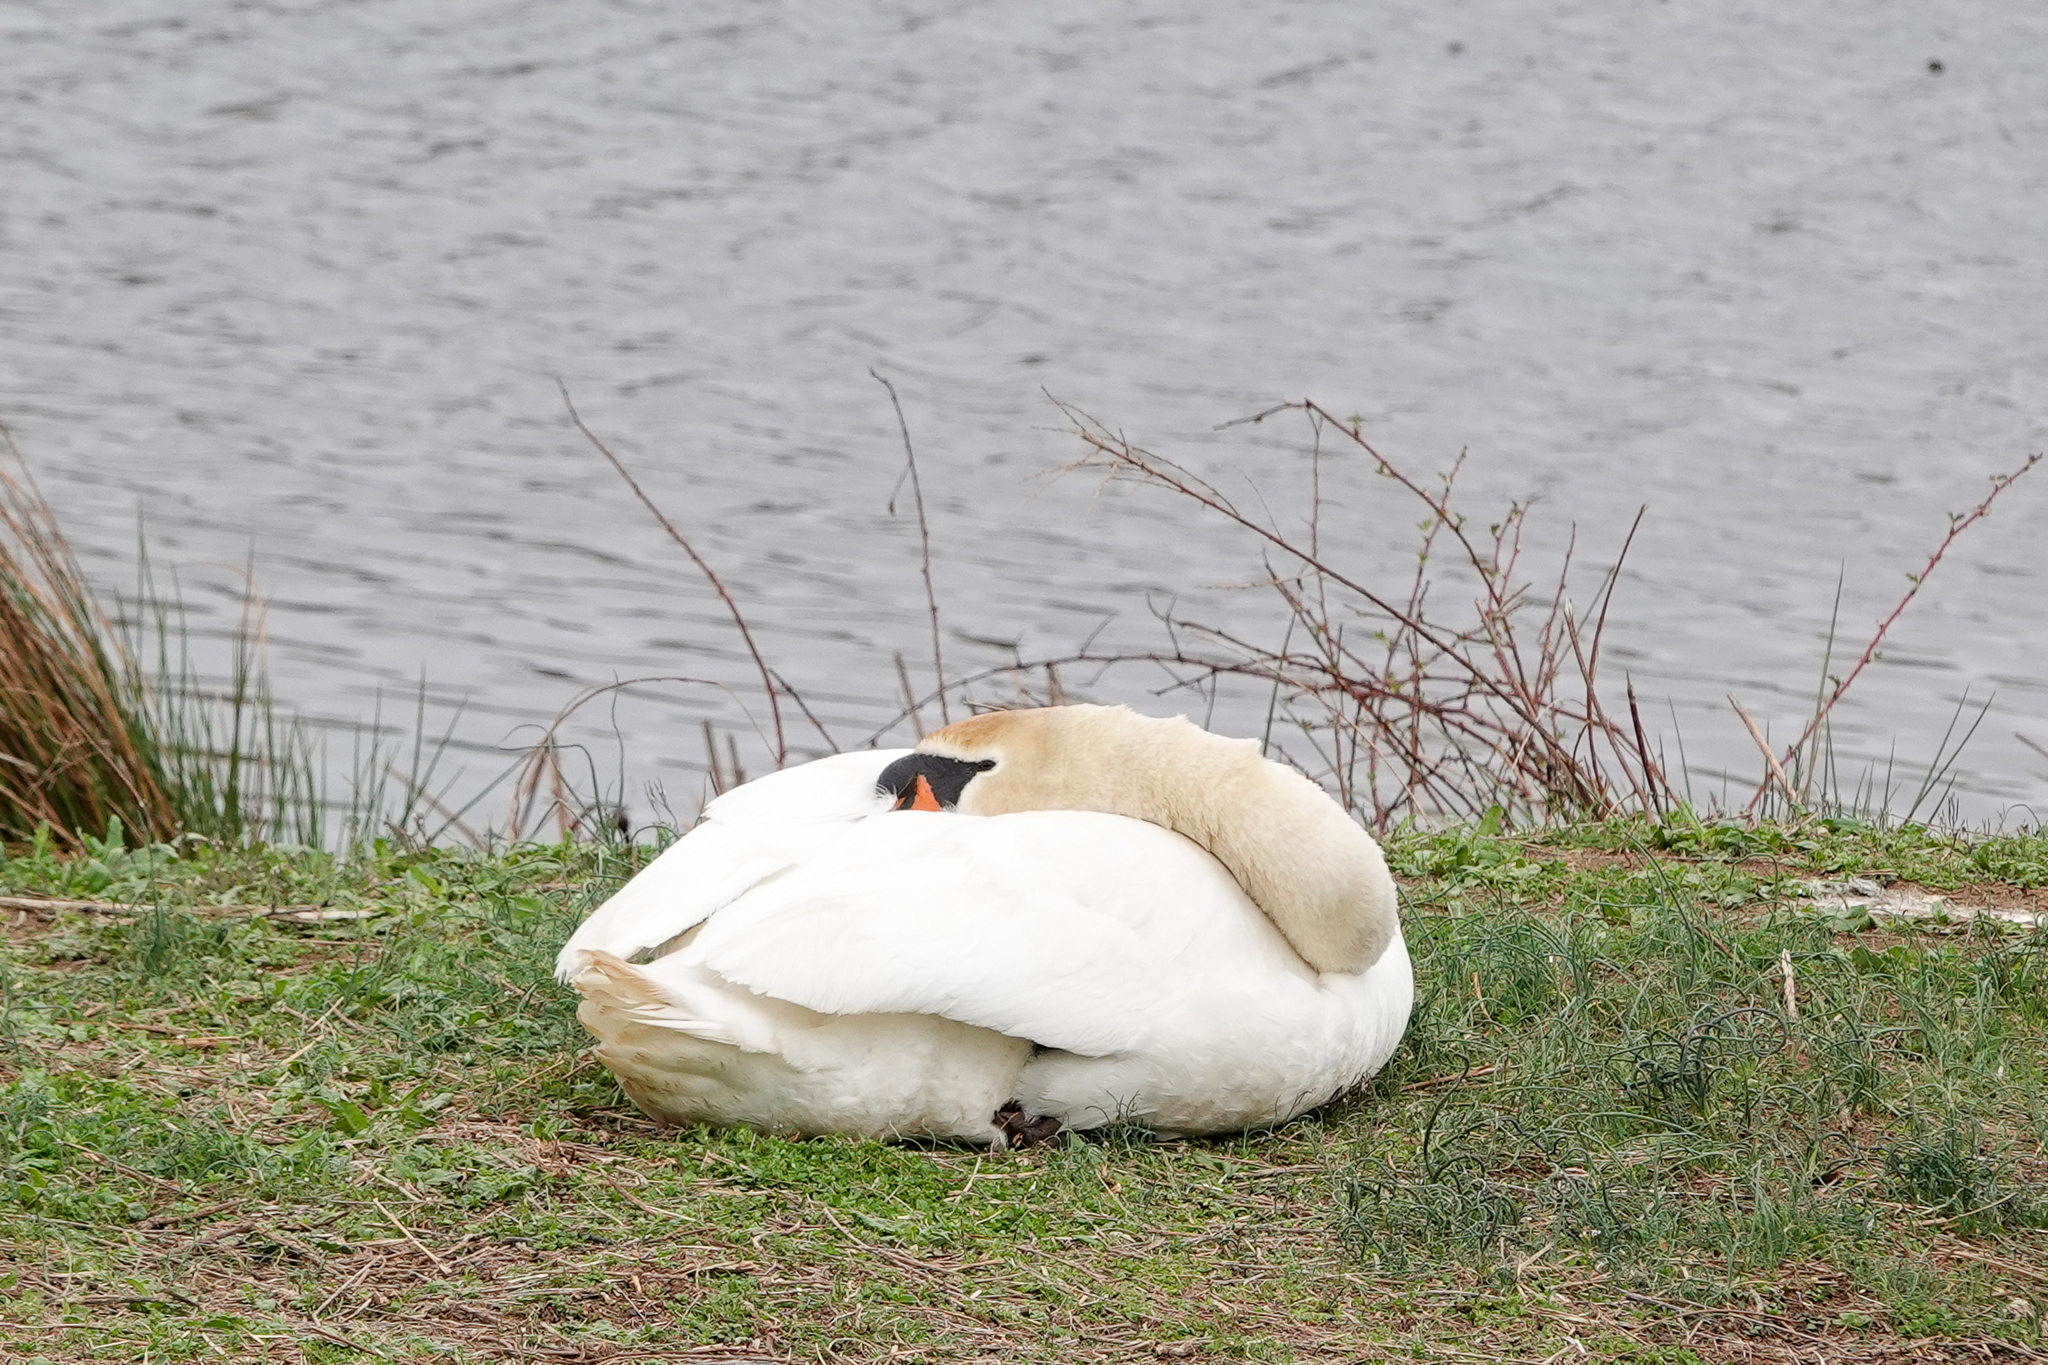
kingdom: Animalia
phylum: Chordata
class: Aves
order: Anseriformes
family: Anatidae
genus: Cygnus
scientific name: Cygnus olor
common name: Mute swan
